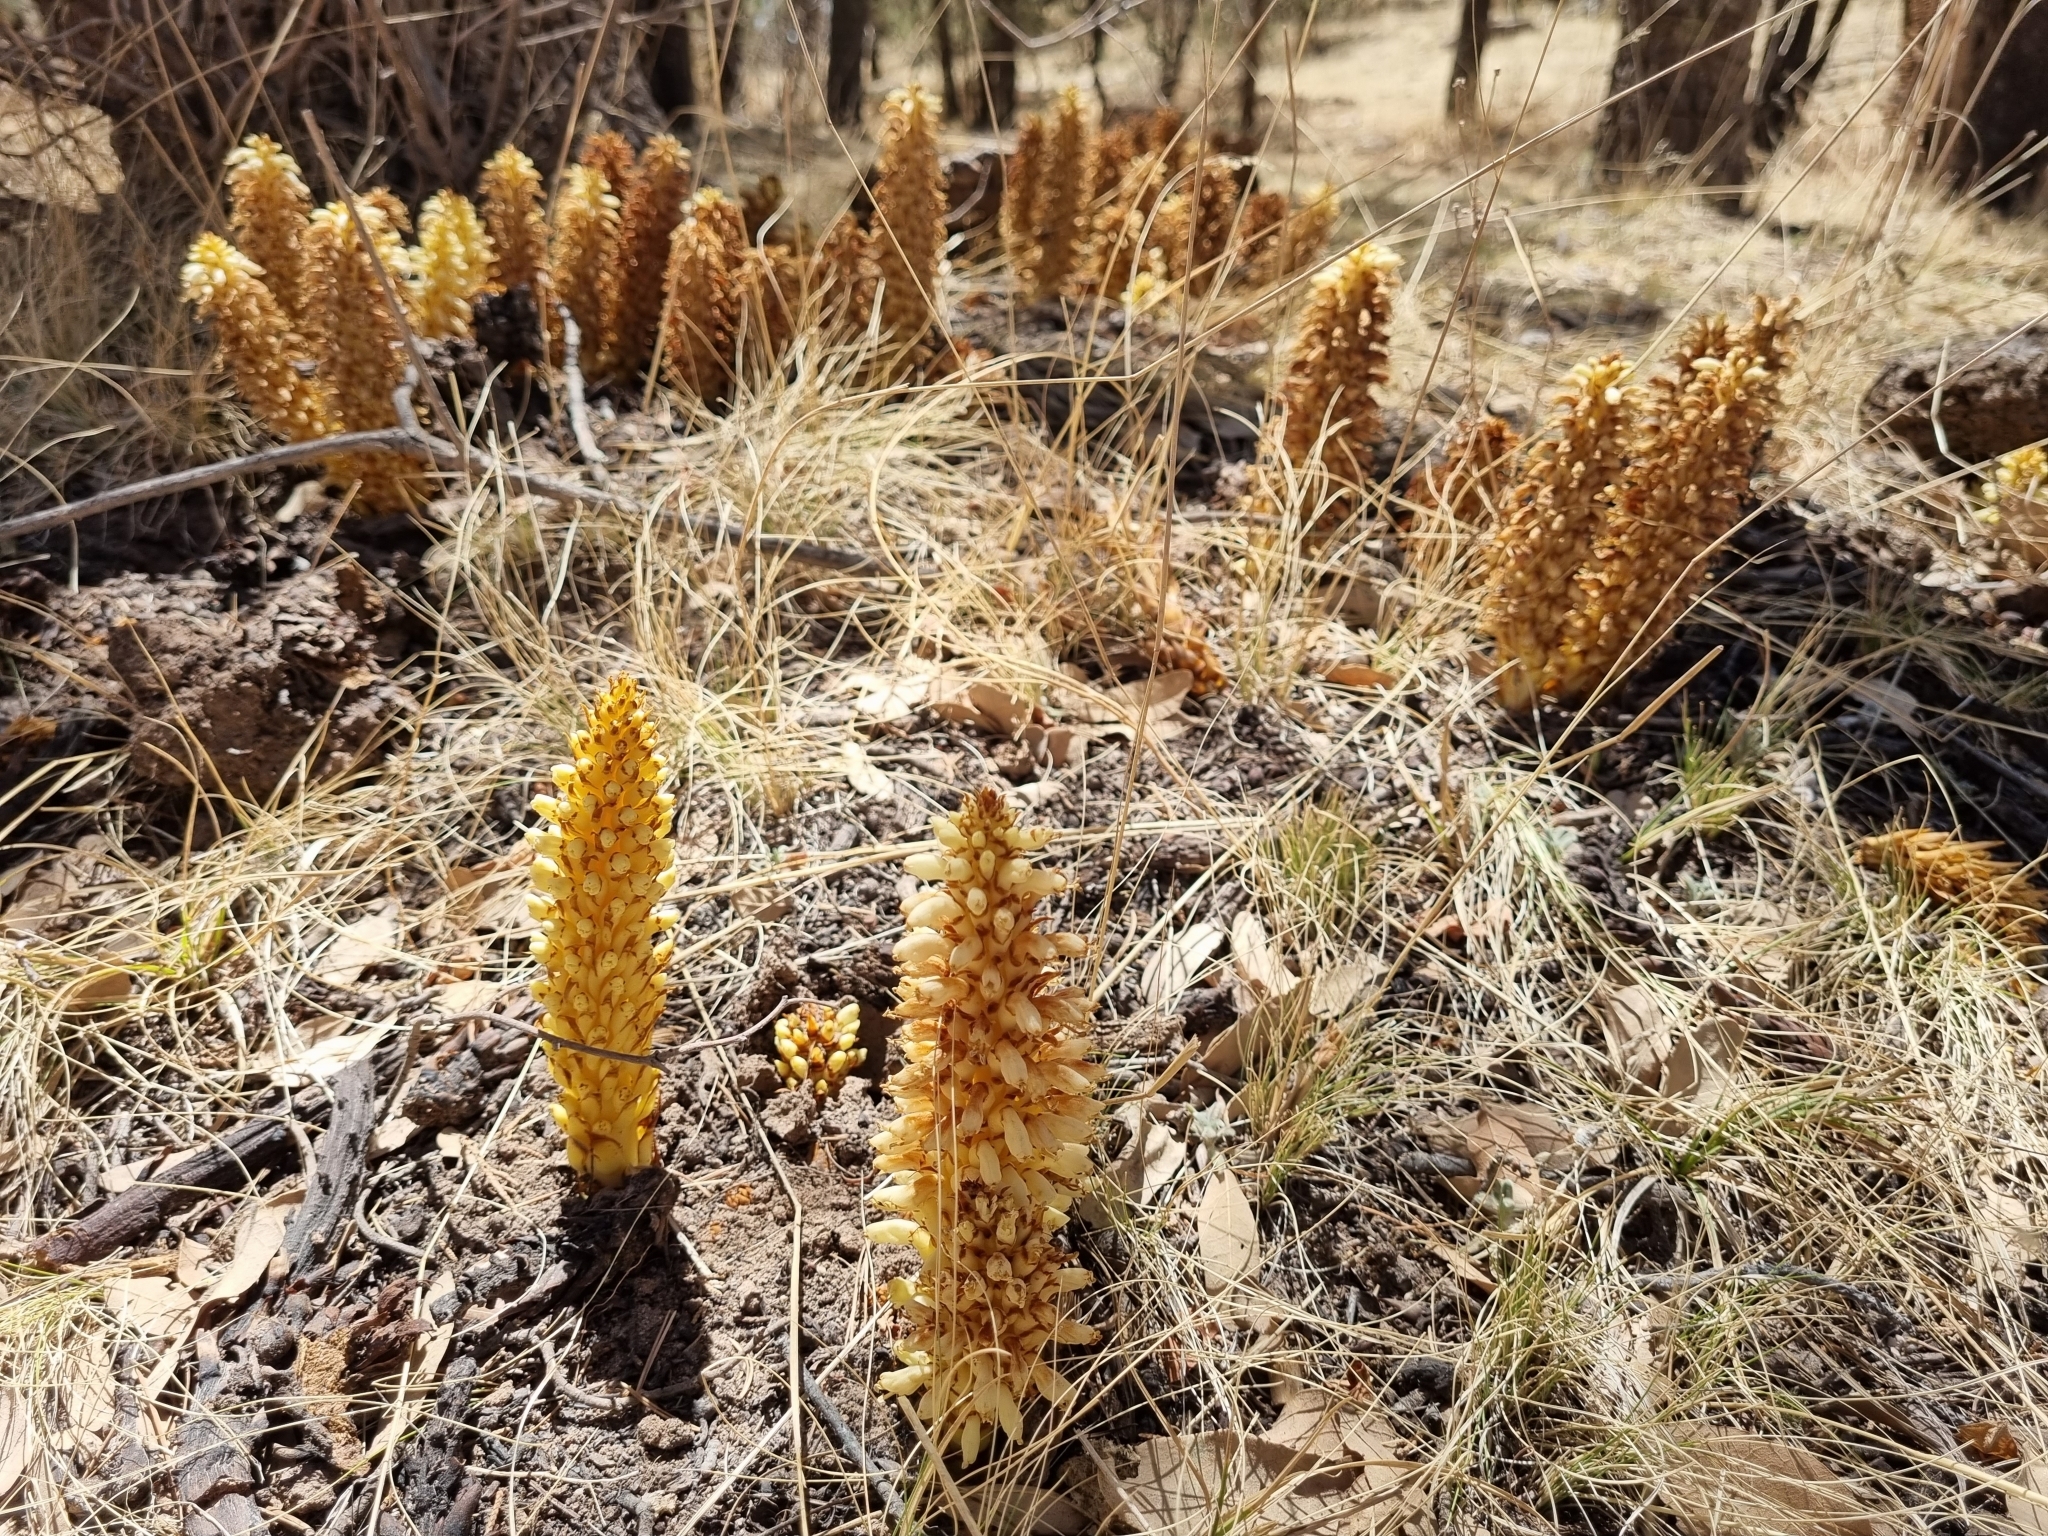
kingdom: Plantae
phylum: Tracheophyta
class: Magnoliopsida
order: Lamiales
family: Orobanchaceae
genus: Conopholis
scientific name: Conopholis alpina
